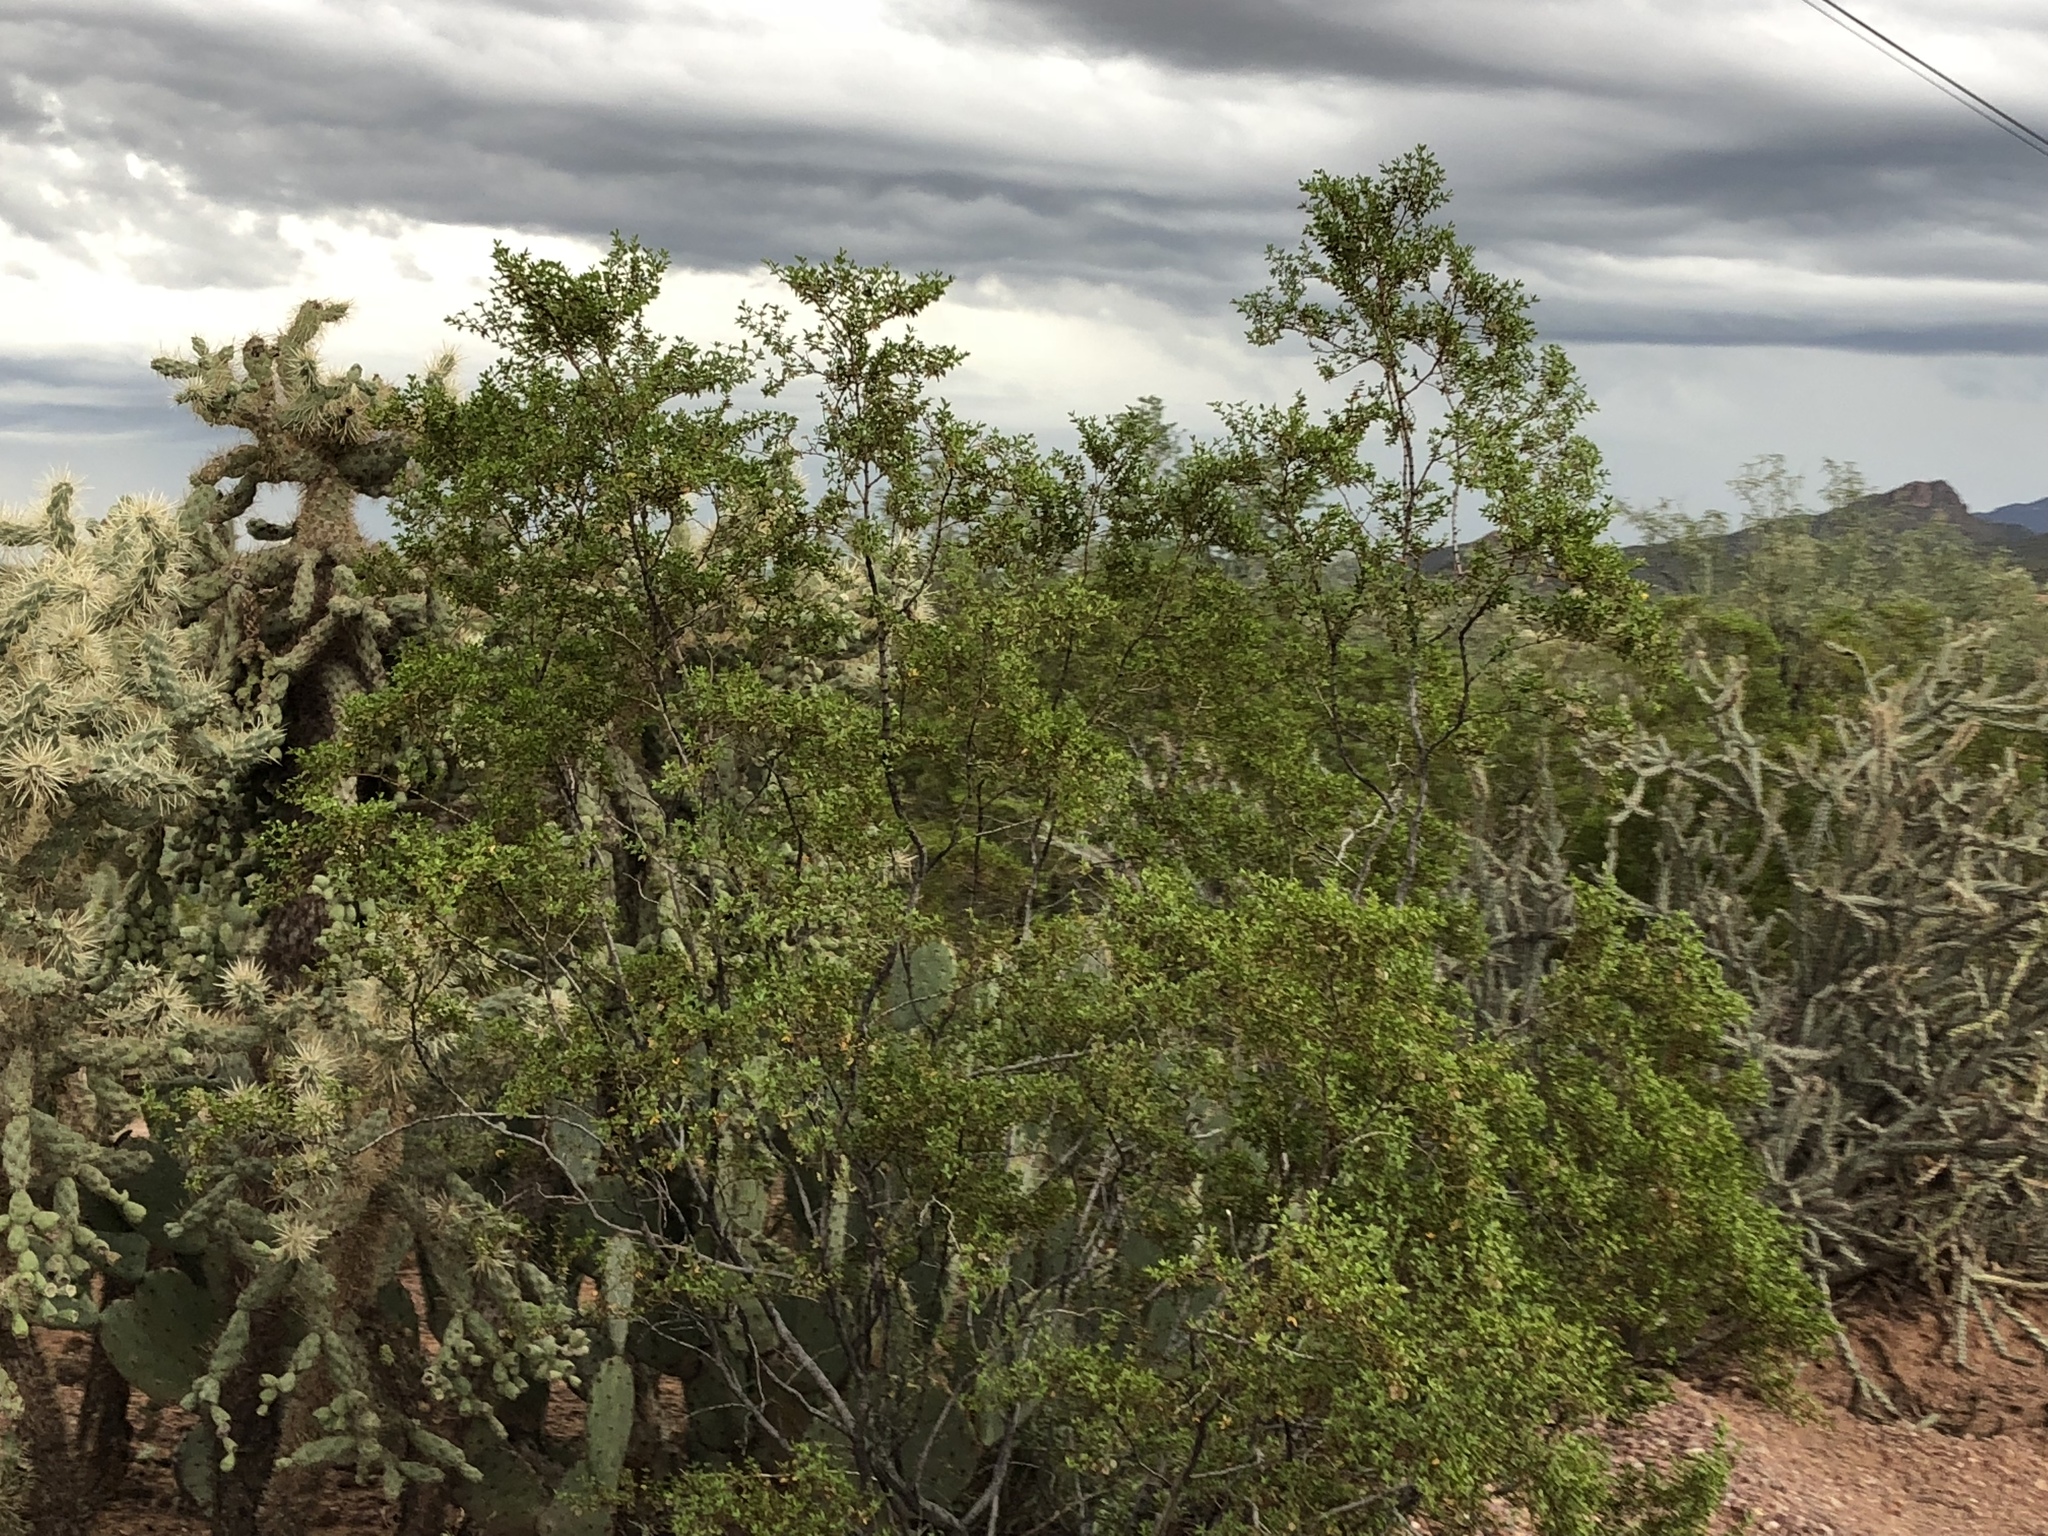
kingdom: Plantae
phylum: Tracheophyta
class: Magnoliopsida
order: Zygophyllales
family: Zygophyllaceae
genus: Larrea
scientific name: Larrea tridentata
